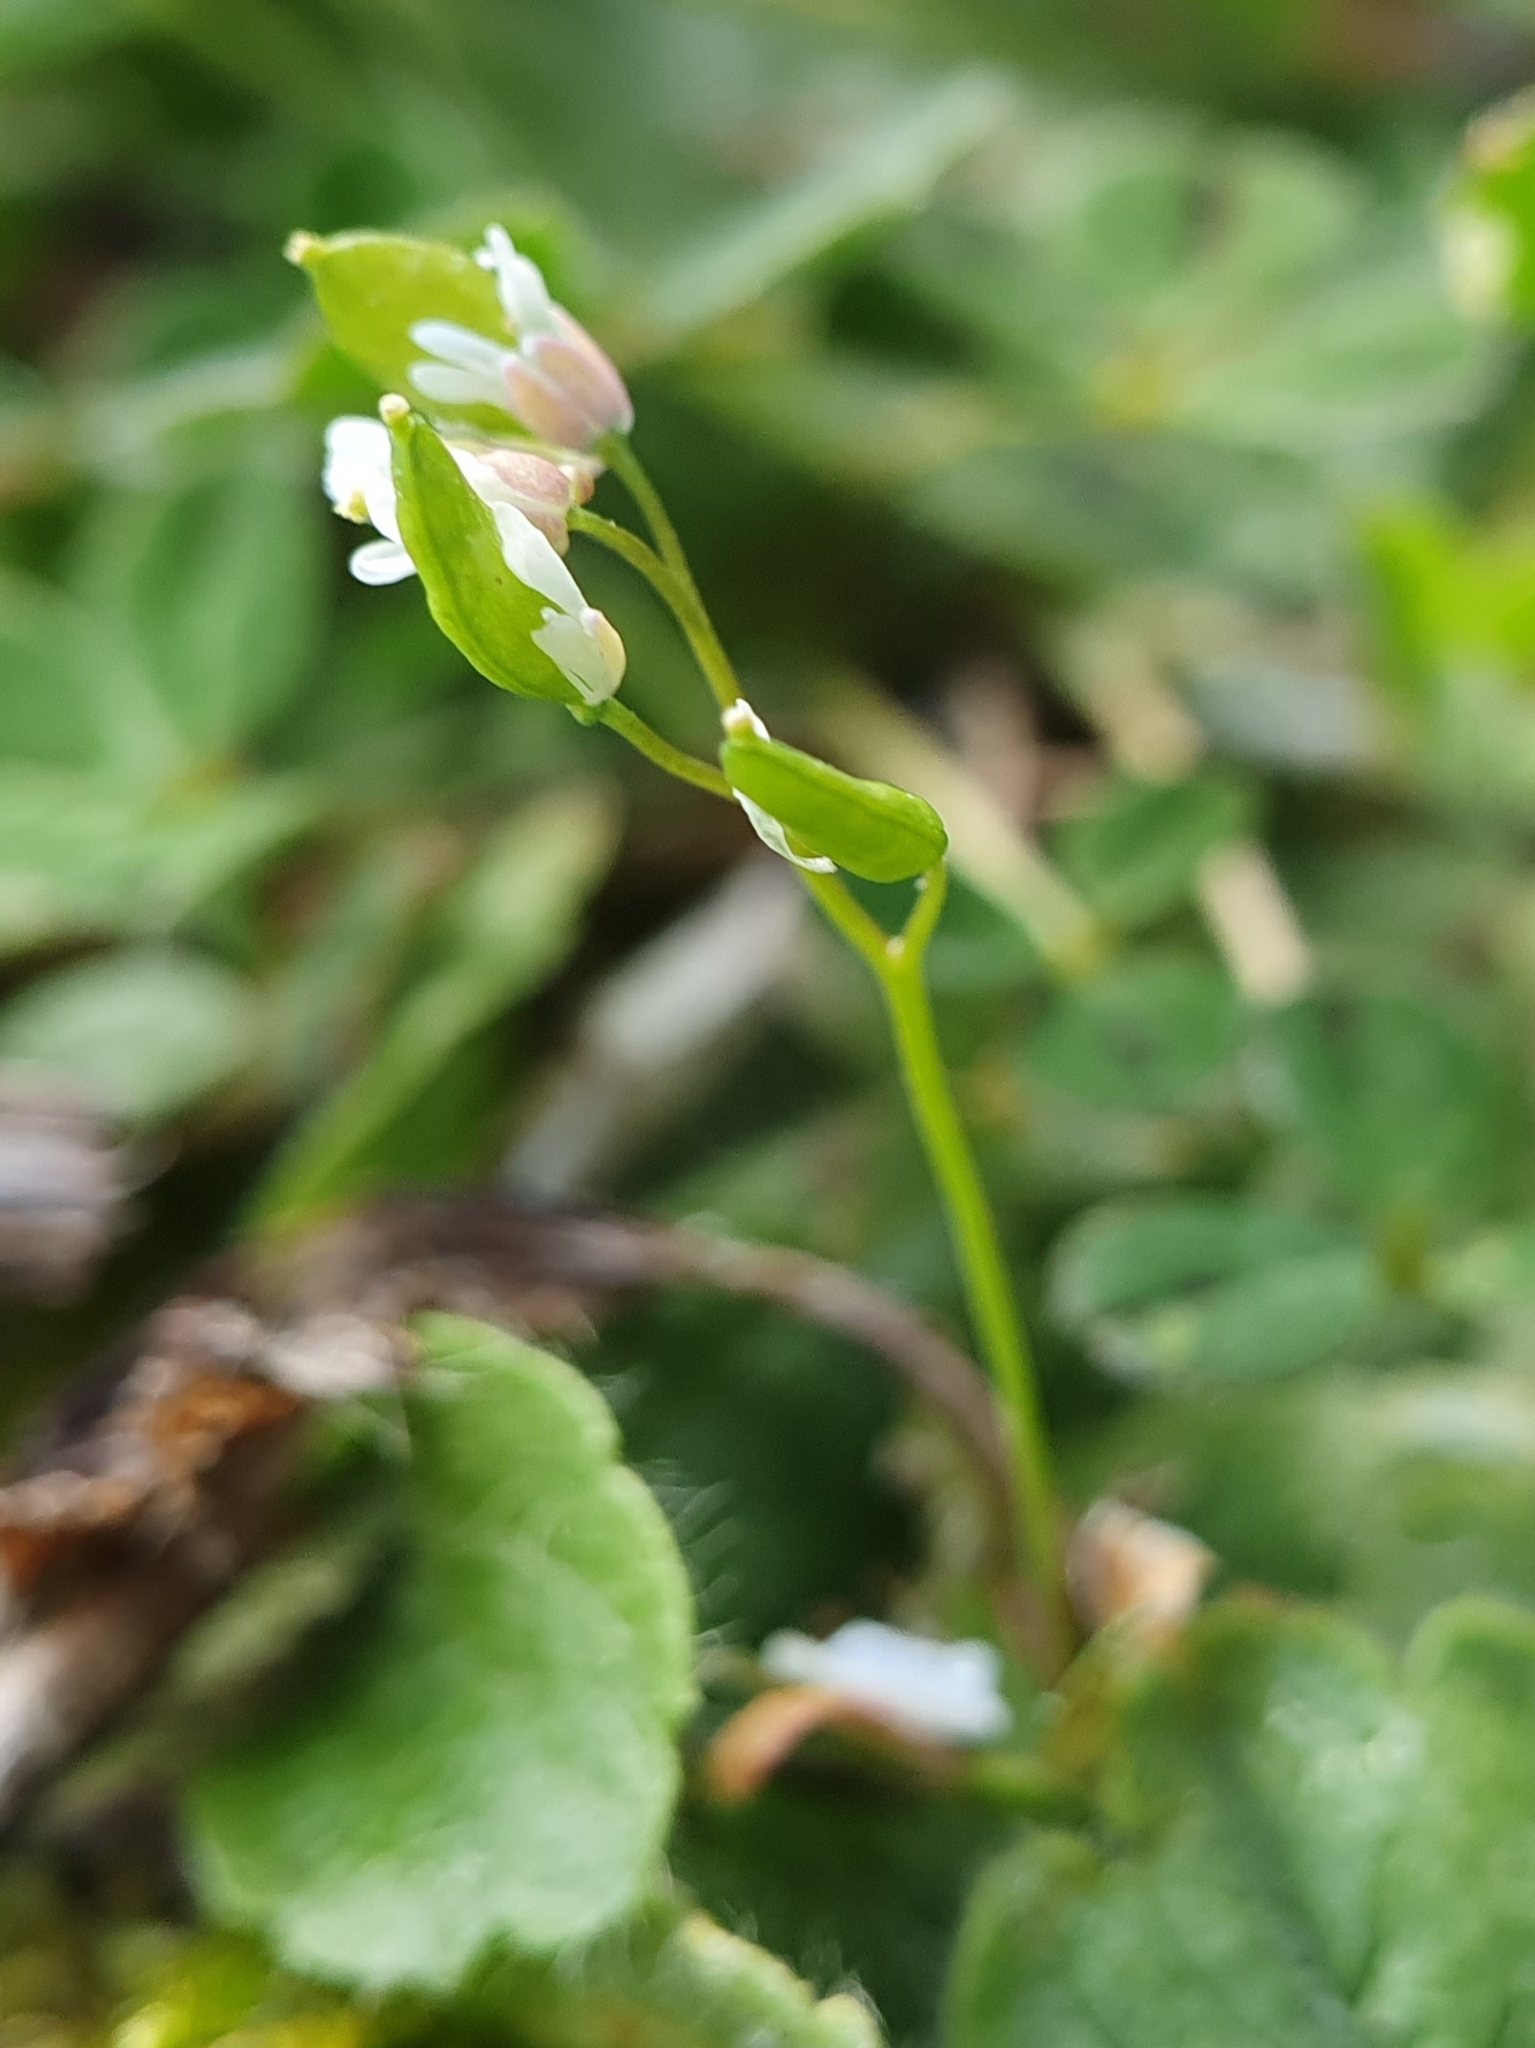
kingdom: Plantae
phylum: Tracheophyta
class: Magnoliopsida
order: Brassicales
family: Brassicaceae
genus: Draba
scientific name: Draba verna
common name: Spring draba
